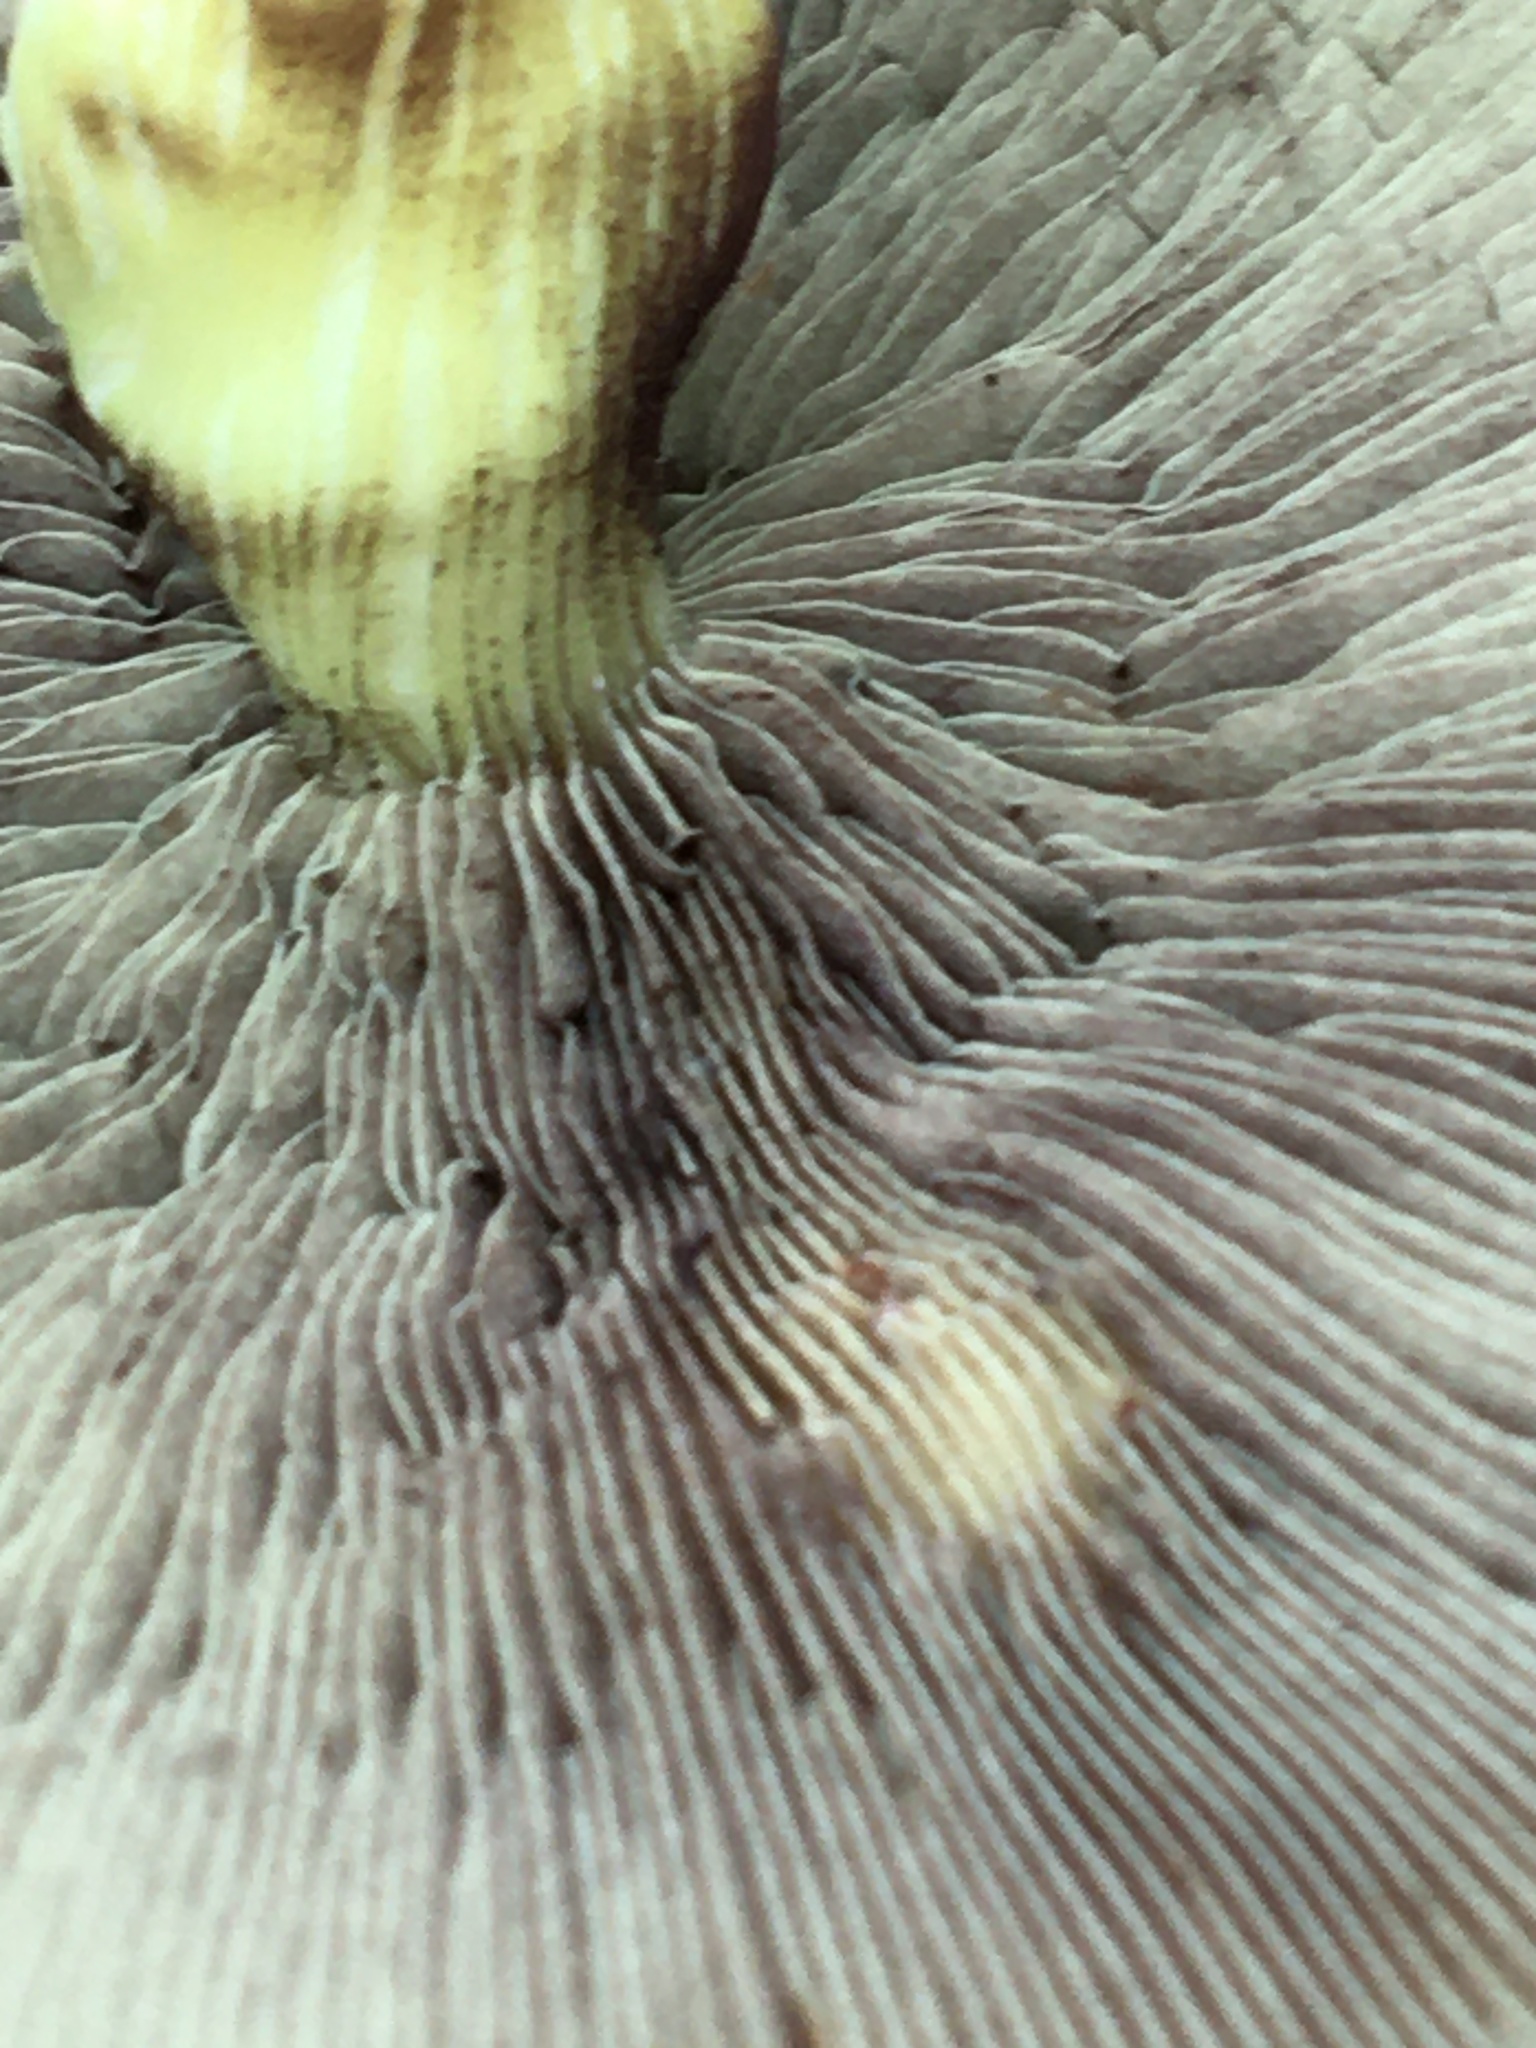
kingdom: Fungi
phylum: Basidiomycota
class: Agaricomycetes
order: Agaricales
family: Strophariaceae
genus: Hypholoma
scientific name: Hypholoma fasciculare
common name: Sulphur tuft
